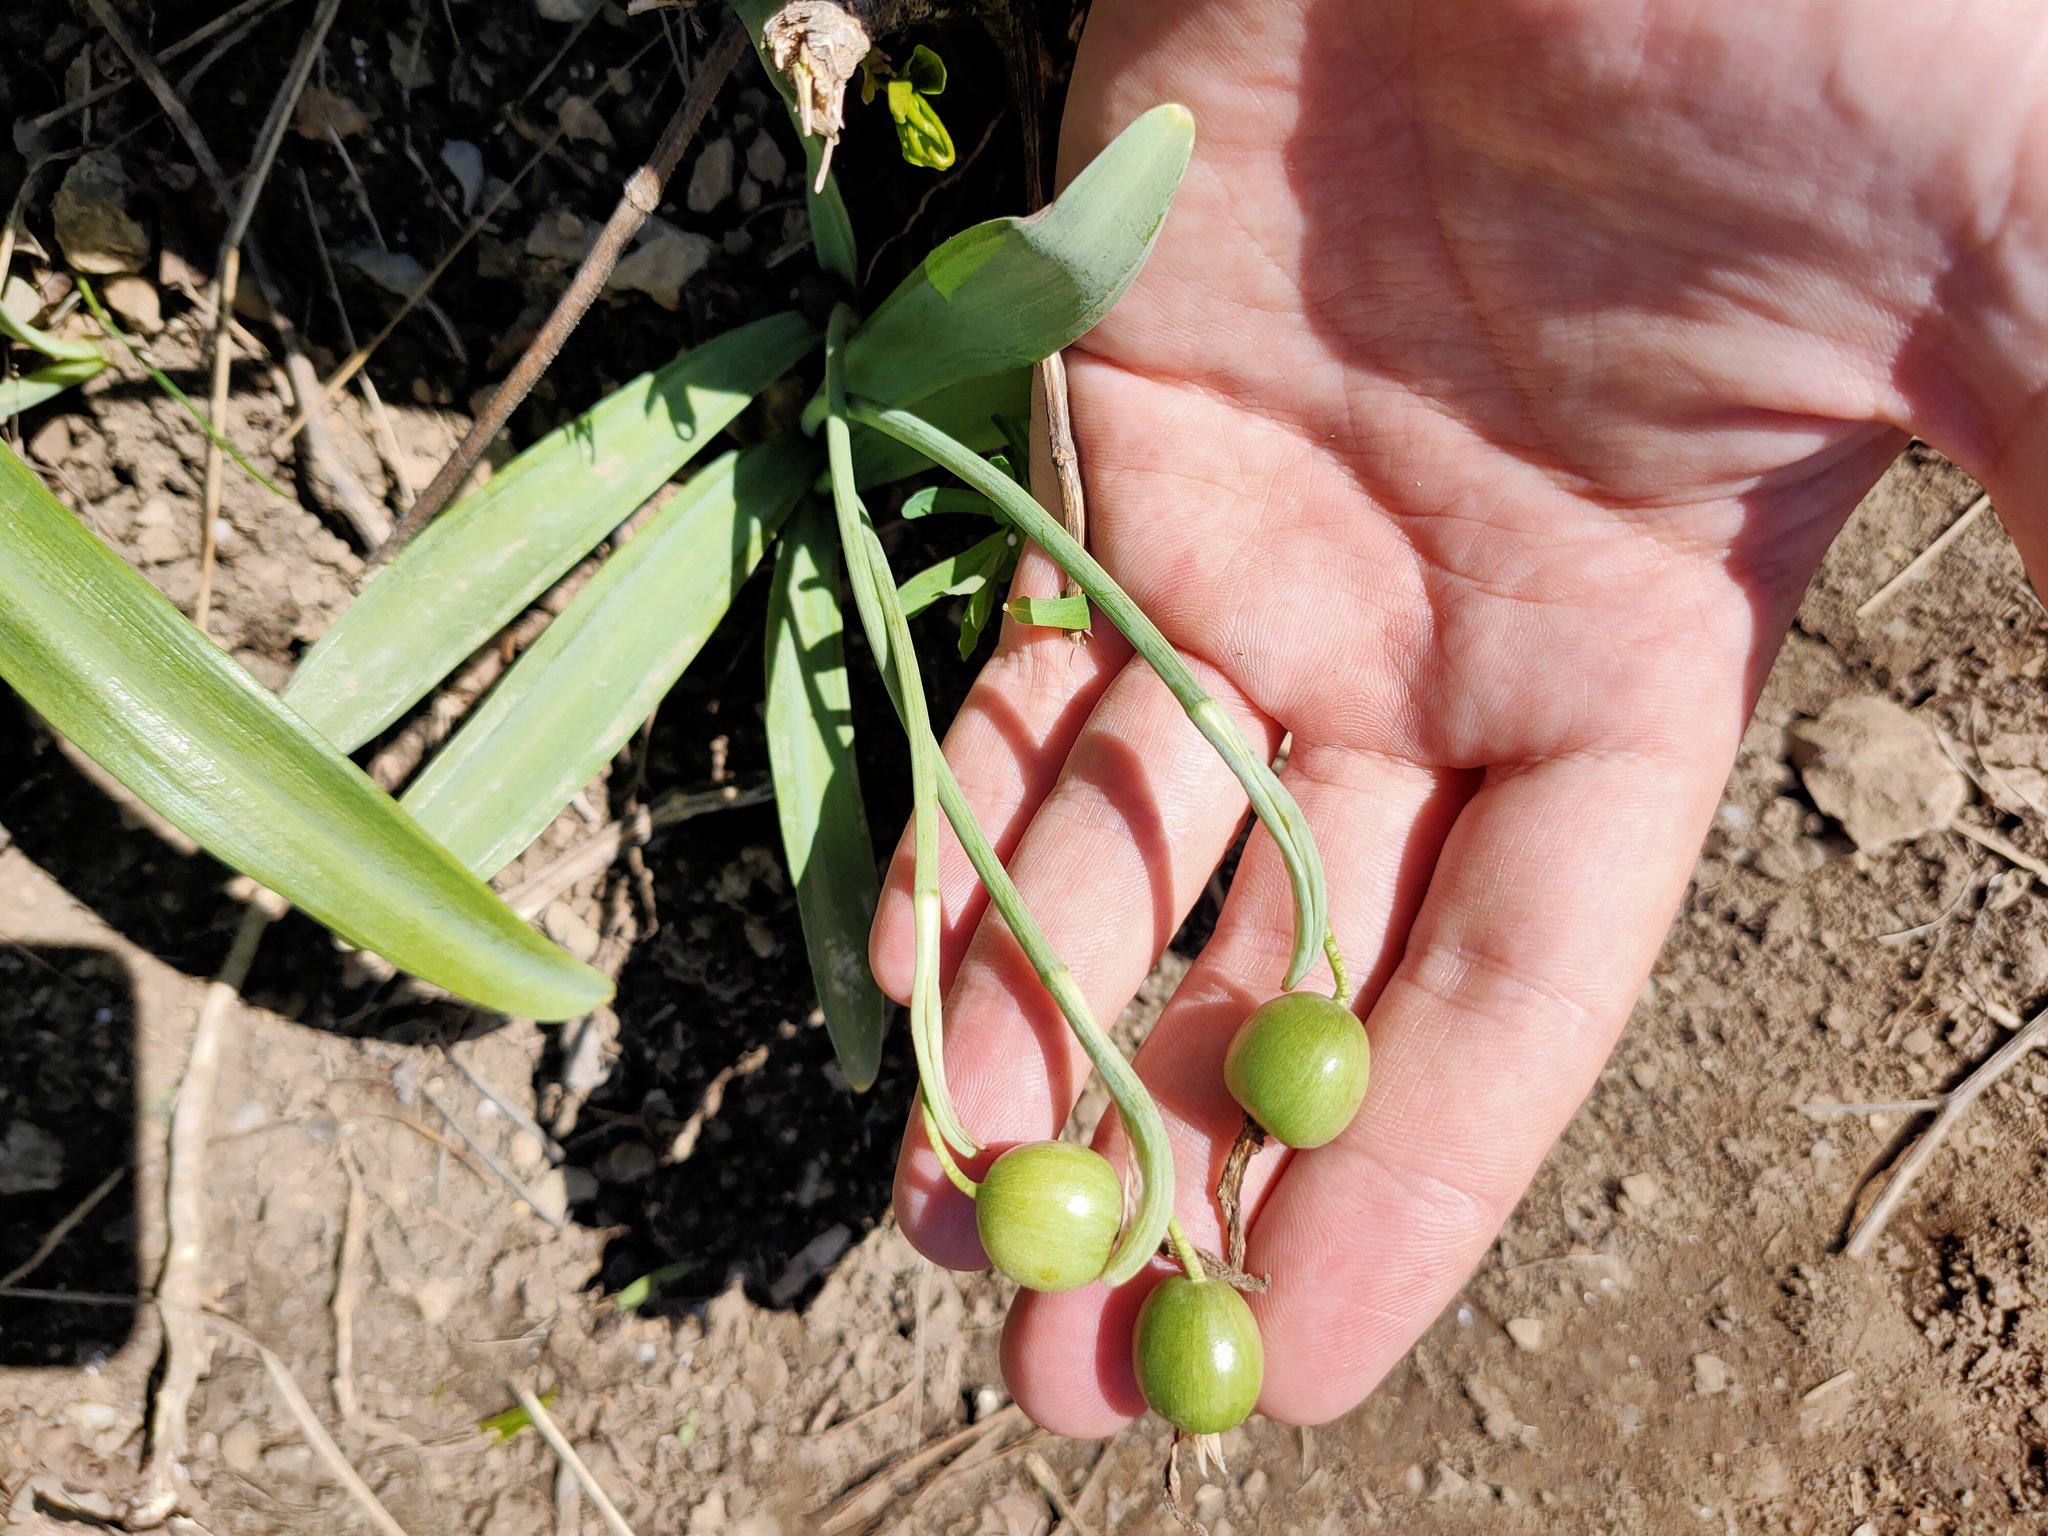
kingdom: Plantae
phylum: Tracheophyta
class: Liliopsida
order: Asparagales
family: Amaryllidaceae
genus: Galanthus
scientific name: Galanthus plicatus
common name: Pleated snowdrop
